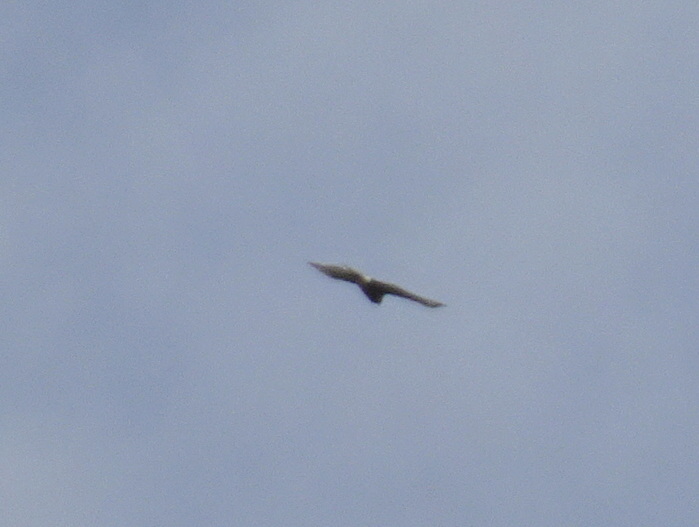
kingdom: Animalia
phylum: Chordata
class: Aves
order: Accipitriformes
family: Accipitridae
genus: Accipiter
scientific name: Accipiter cooperii
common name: Cooper's hawk
